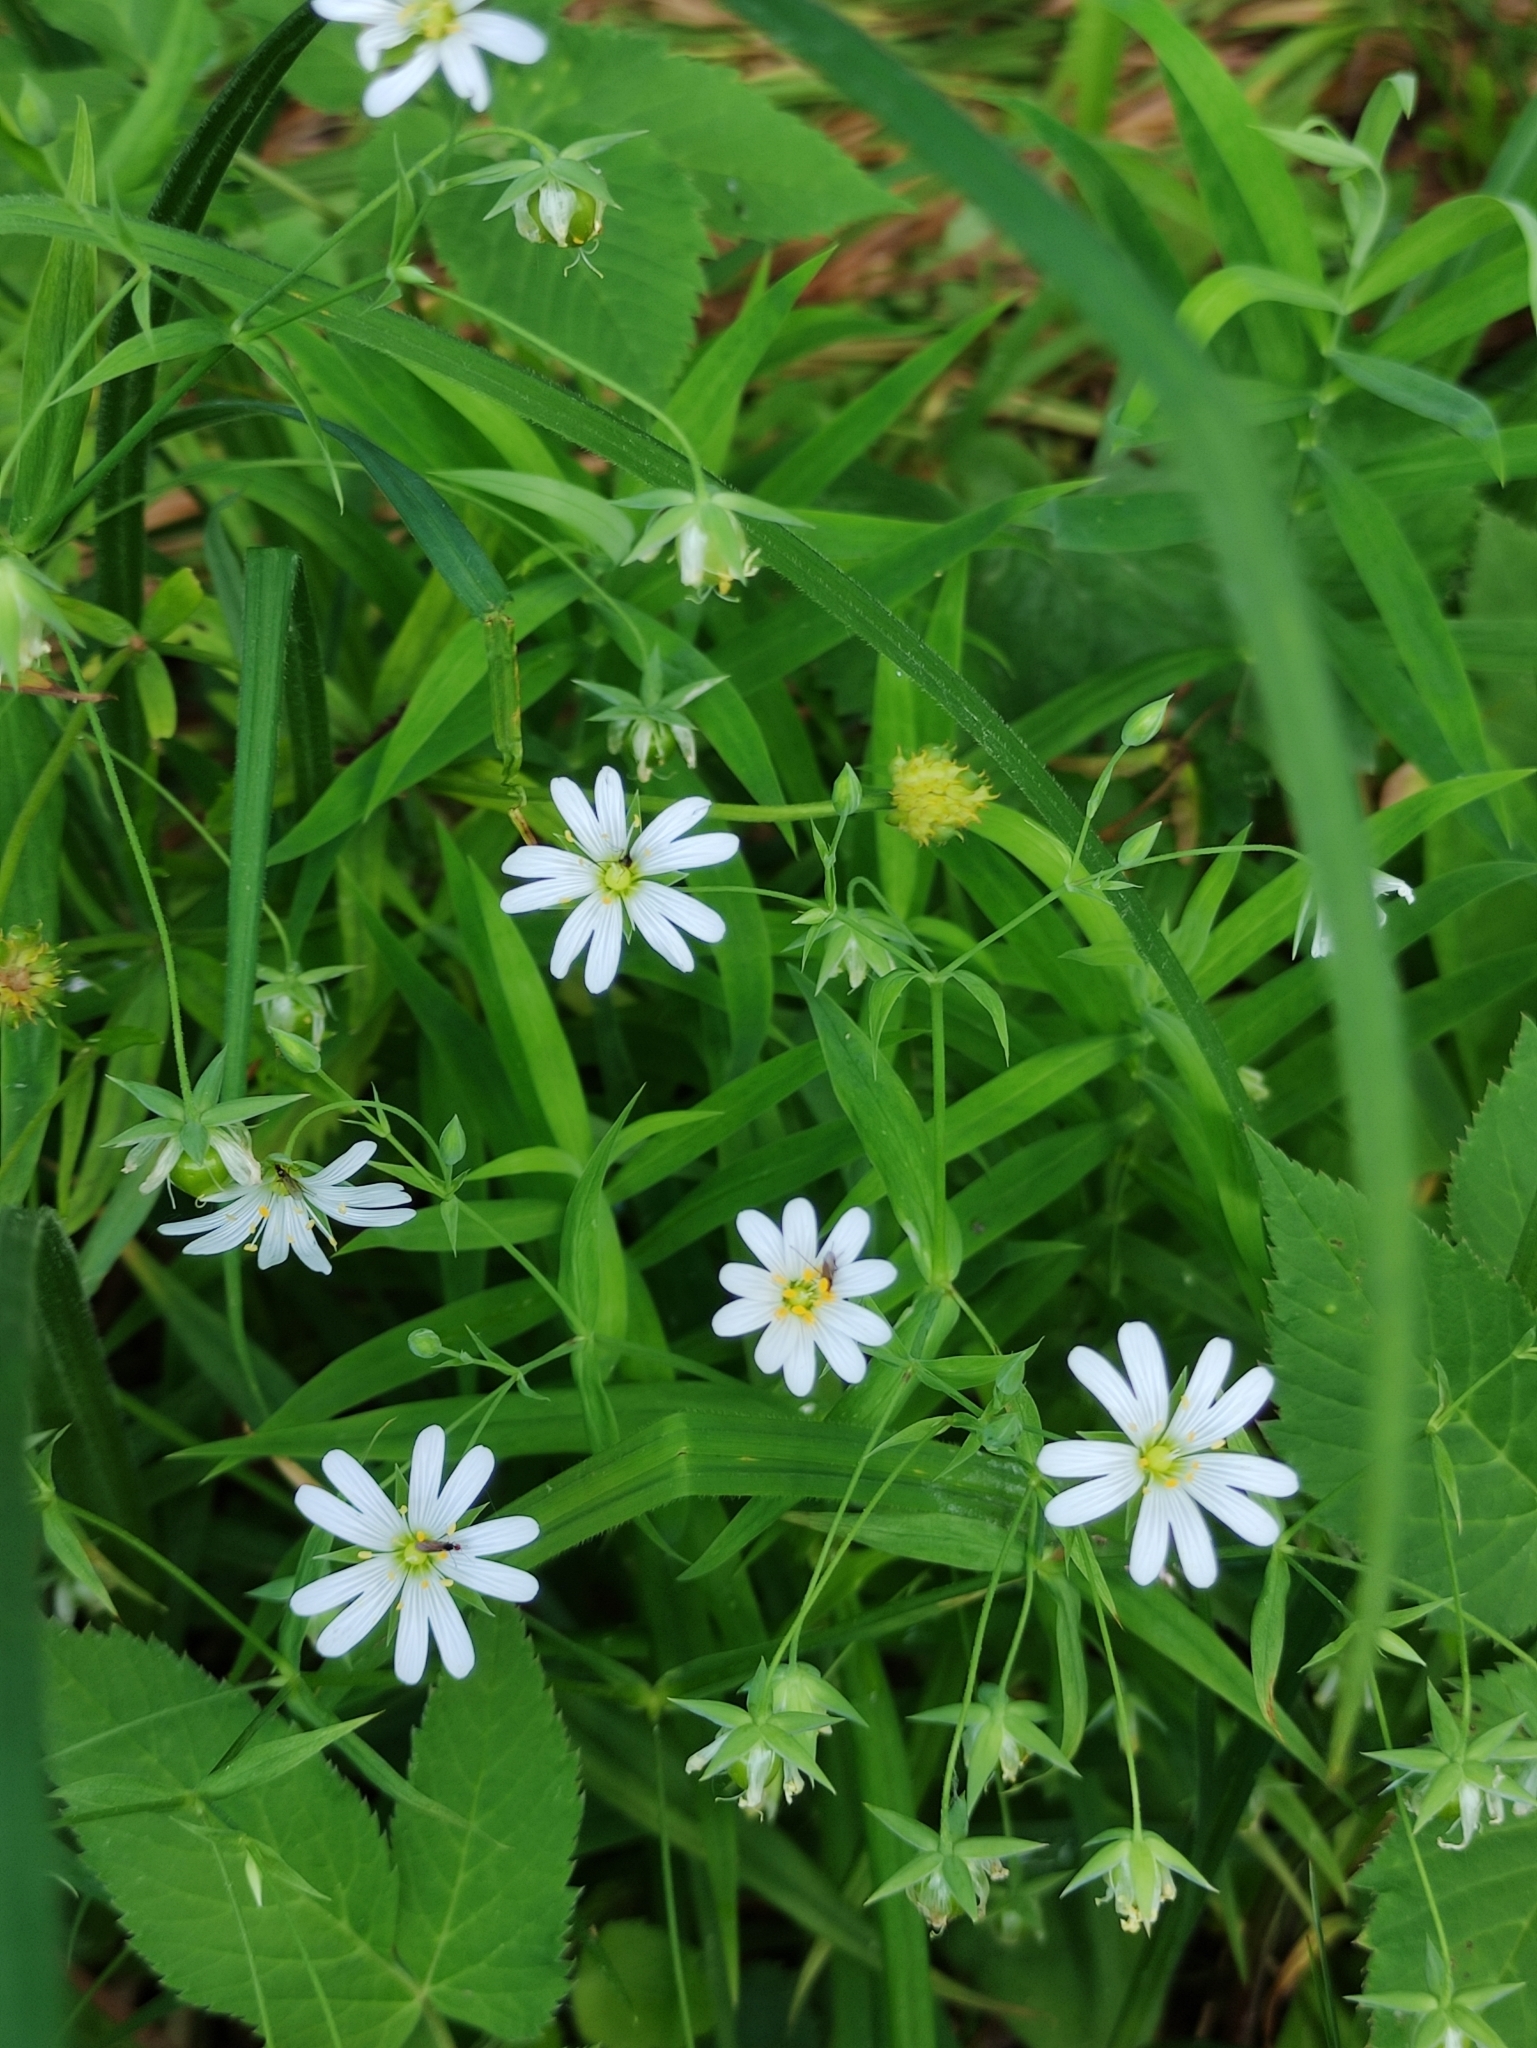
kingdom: Plantae
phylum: Tracheophyta
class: Magnoliopsida
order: Caryophyllales
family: Caryophyllaceae
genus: Rabelera
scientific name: Rabelera holostea
